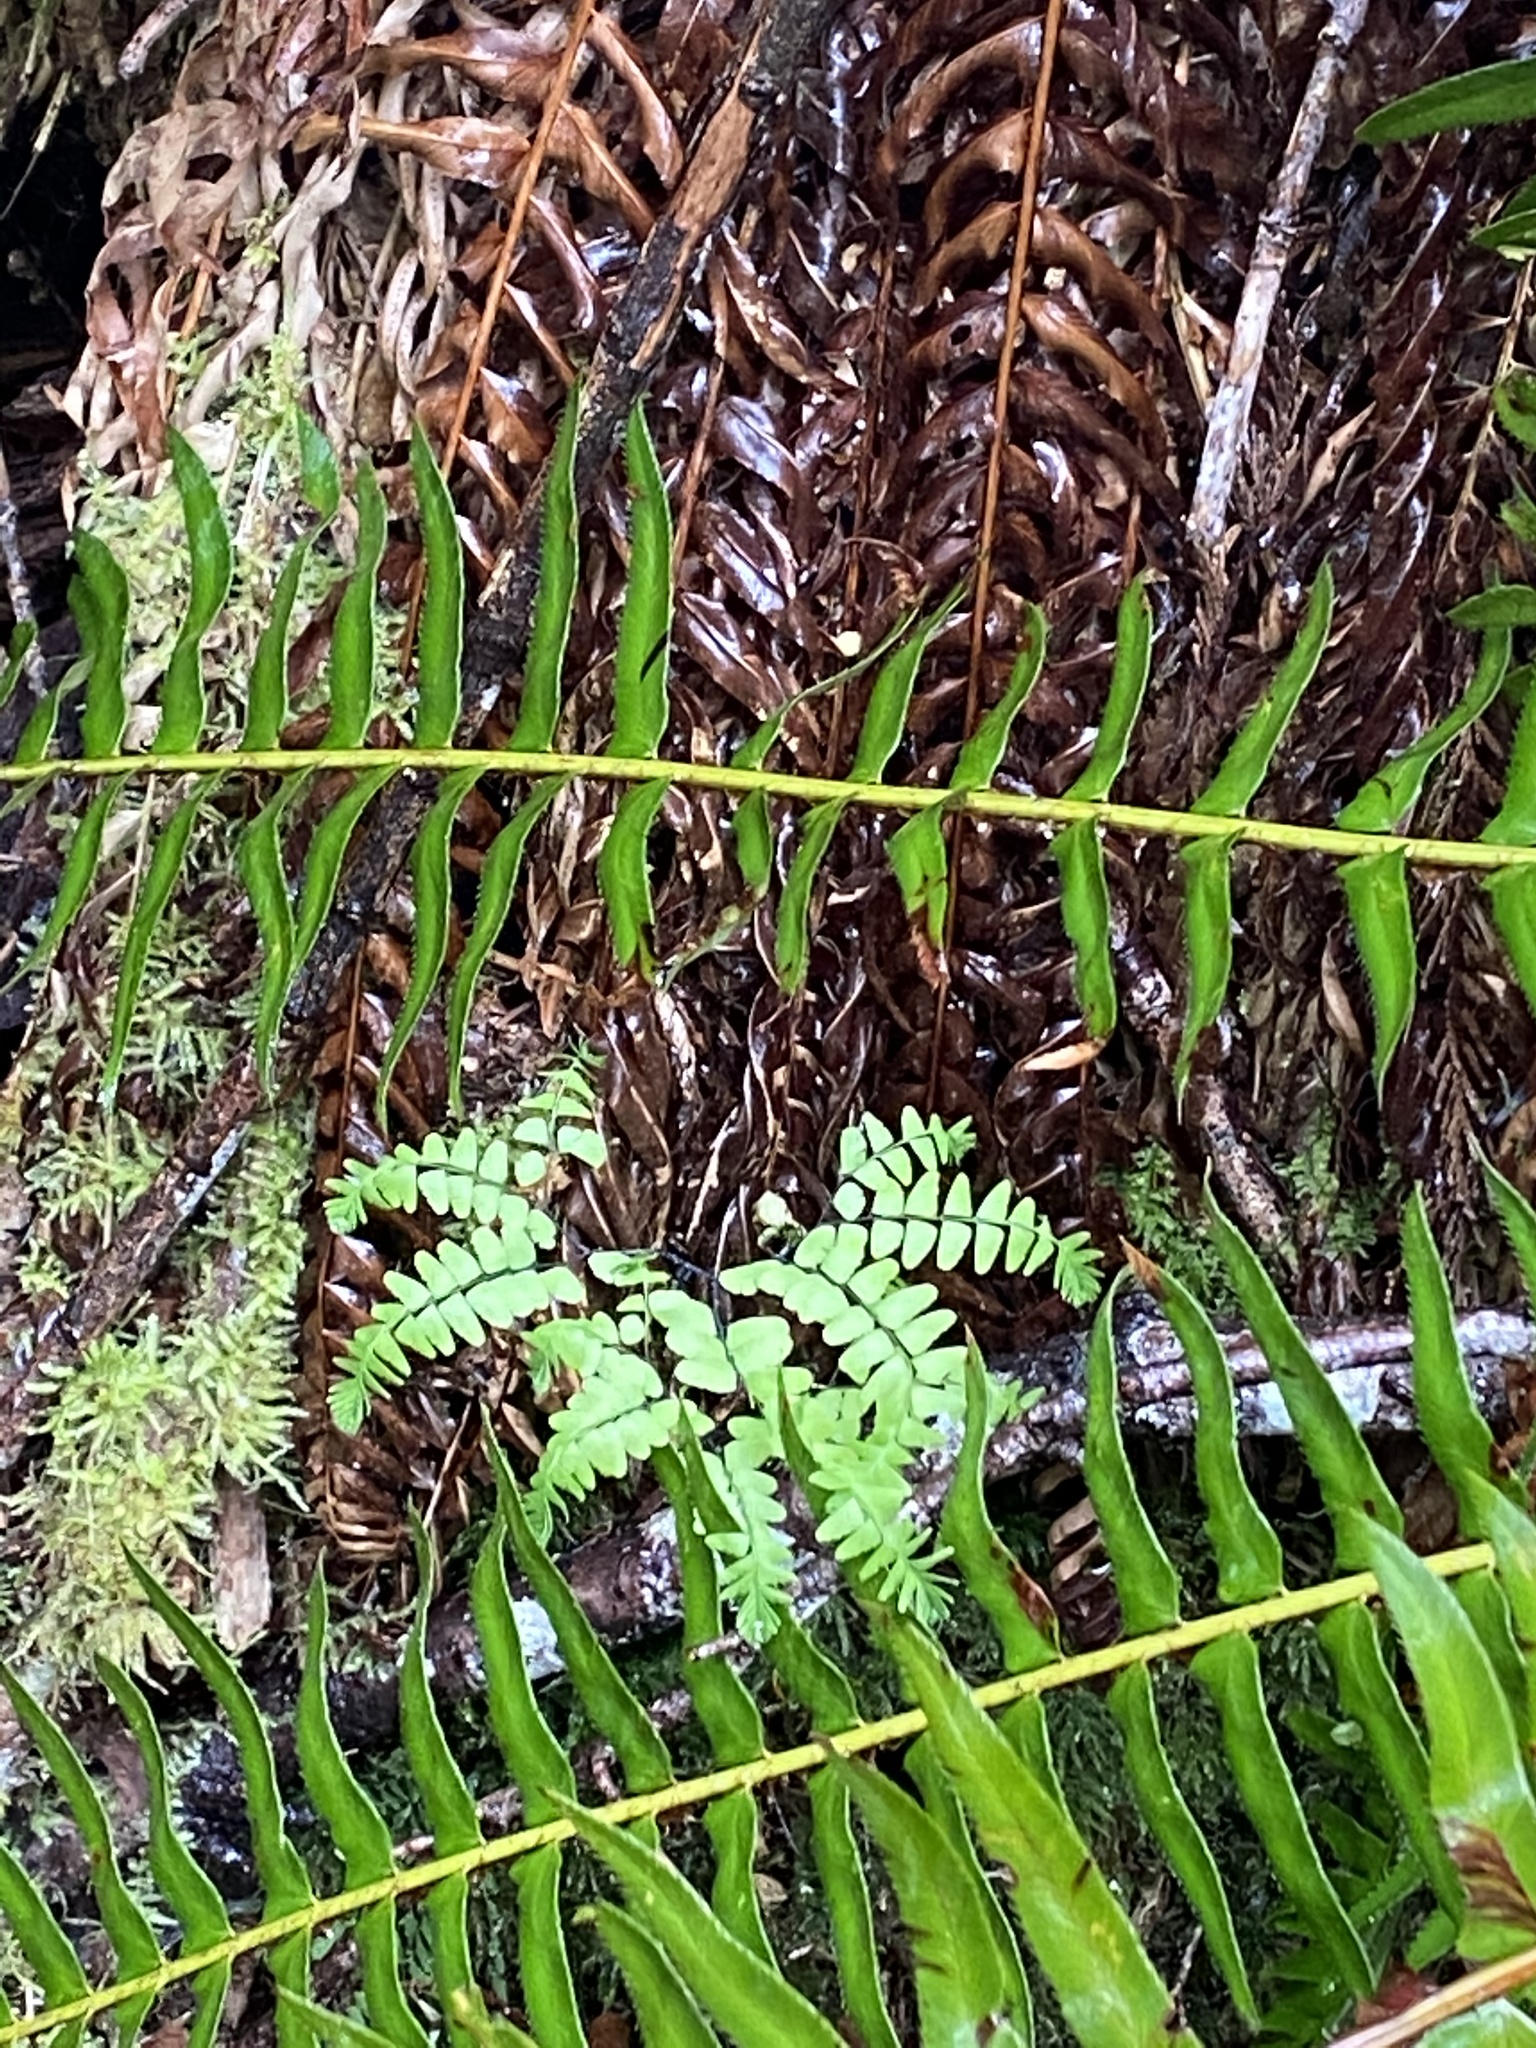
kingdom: Plantae
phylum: Tracheophyta
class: Polypodiopsida
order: Polypodiales
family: Pteridaceae
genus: Adiantum
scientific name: Adiantum aleuticum
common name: Aleutian maidenhair fern
